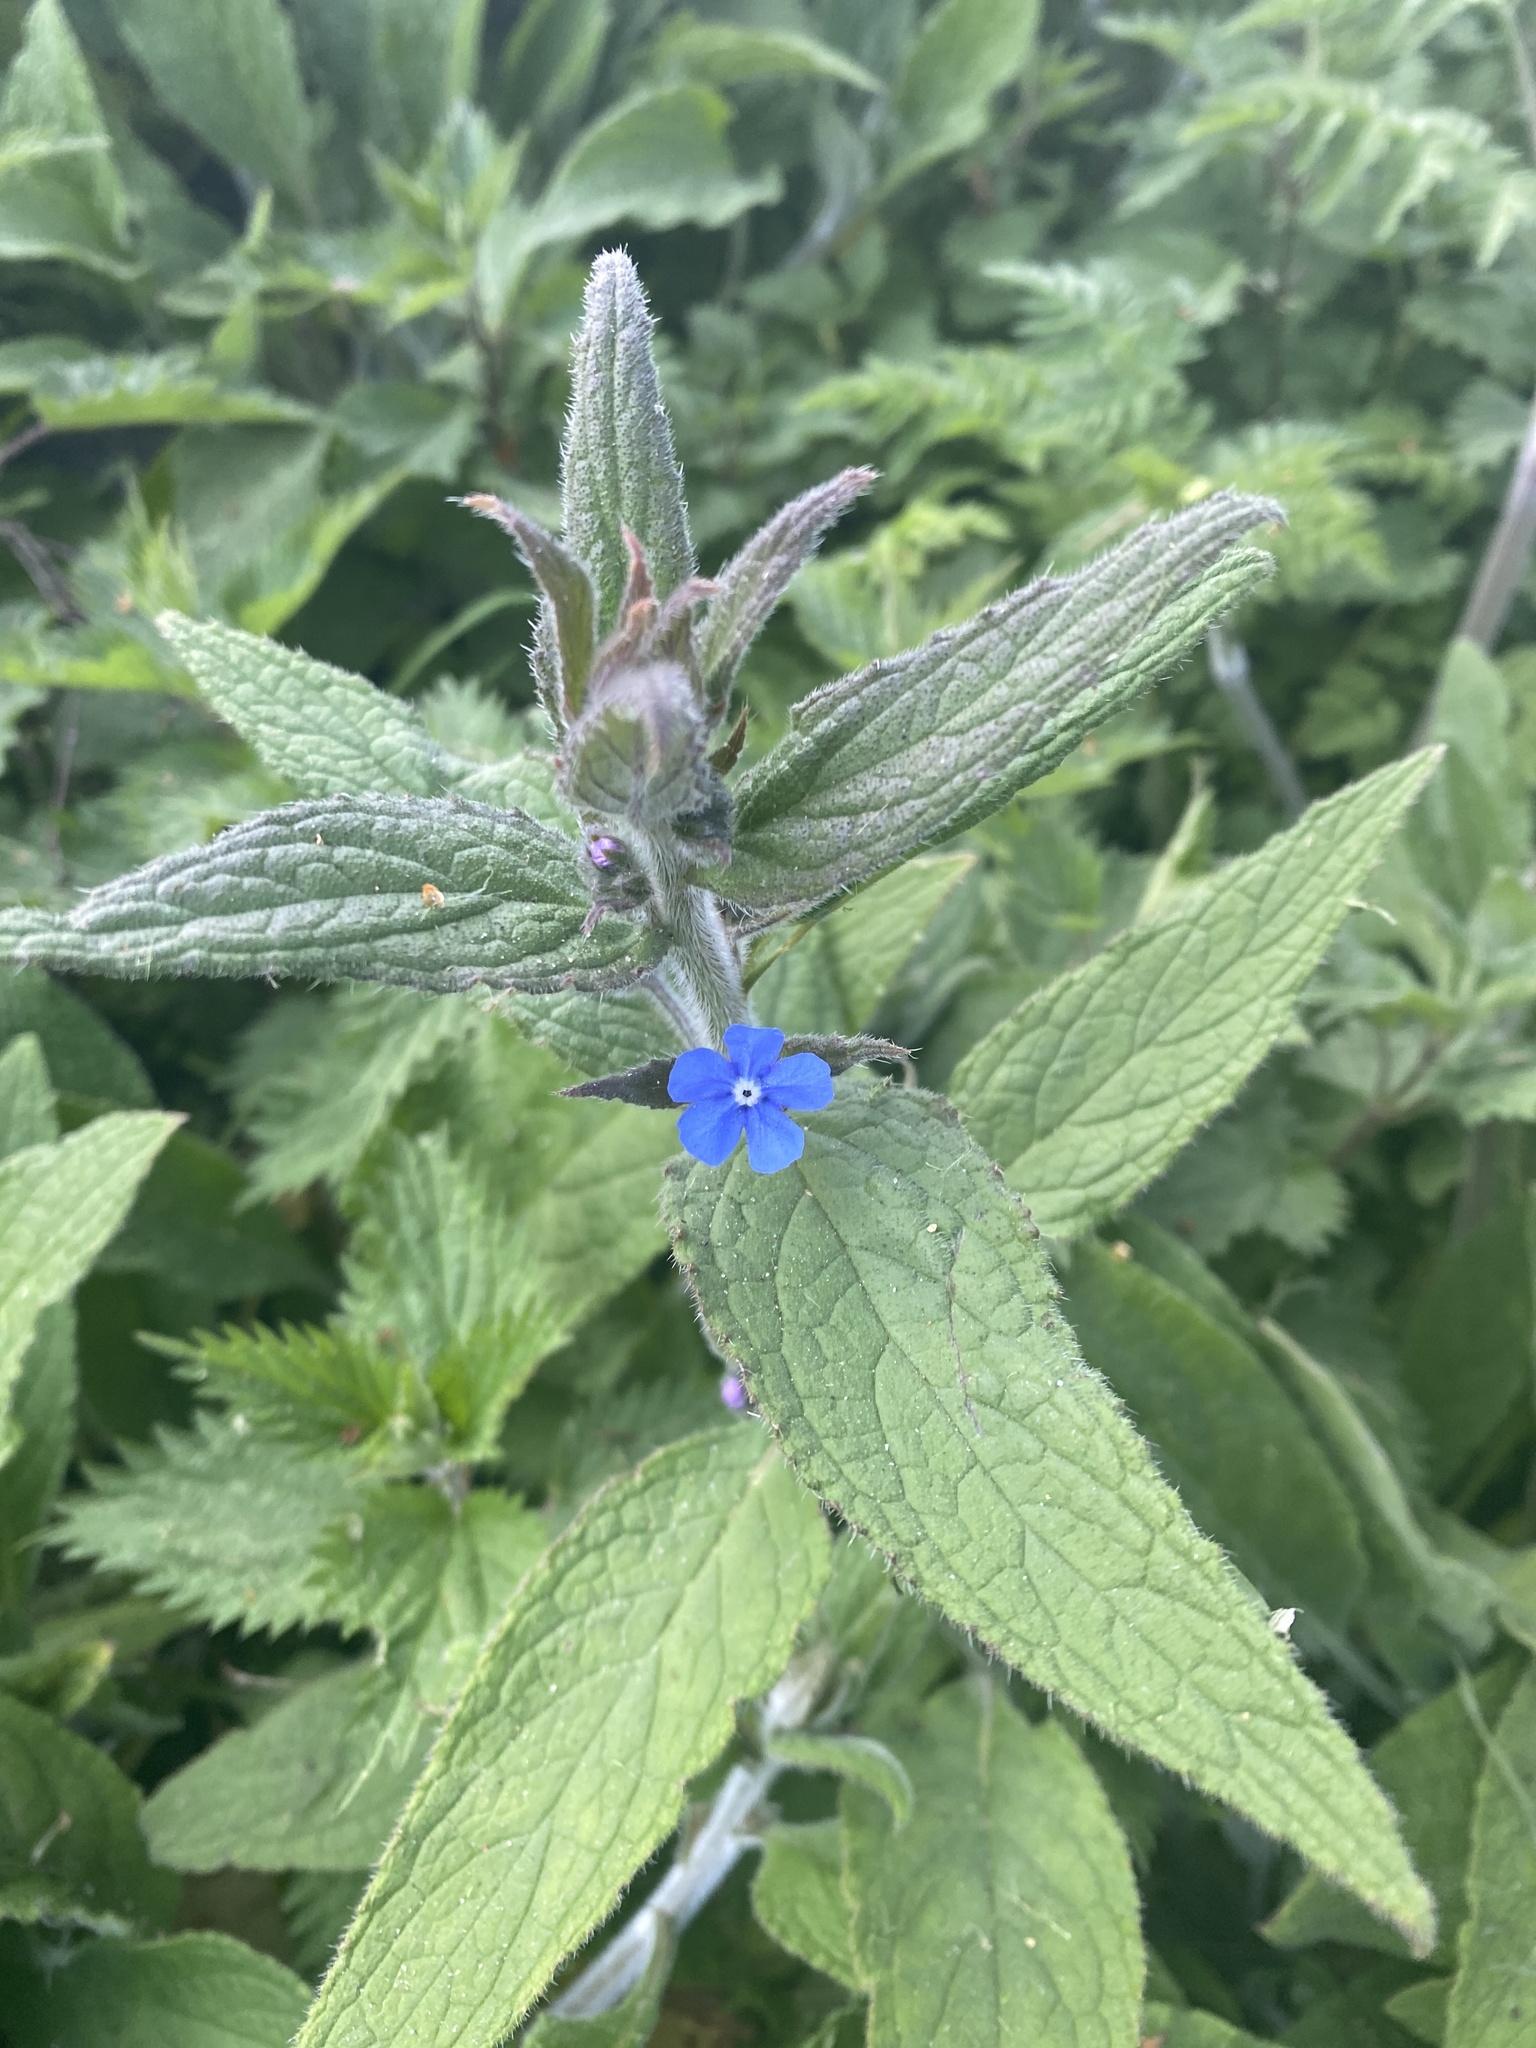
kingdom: Plantae
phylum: Tracheophyta
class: Magnoliopsida
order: Boraginales
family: Boraginaceae
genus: Pentaglottis
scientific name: Pentaglottis sempervirens
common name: Green alkanet
